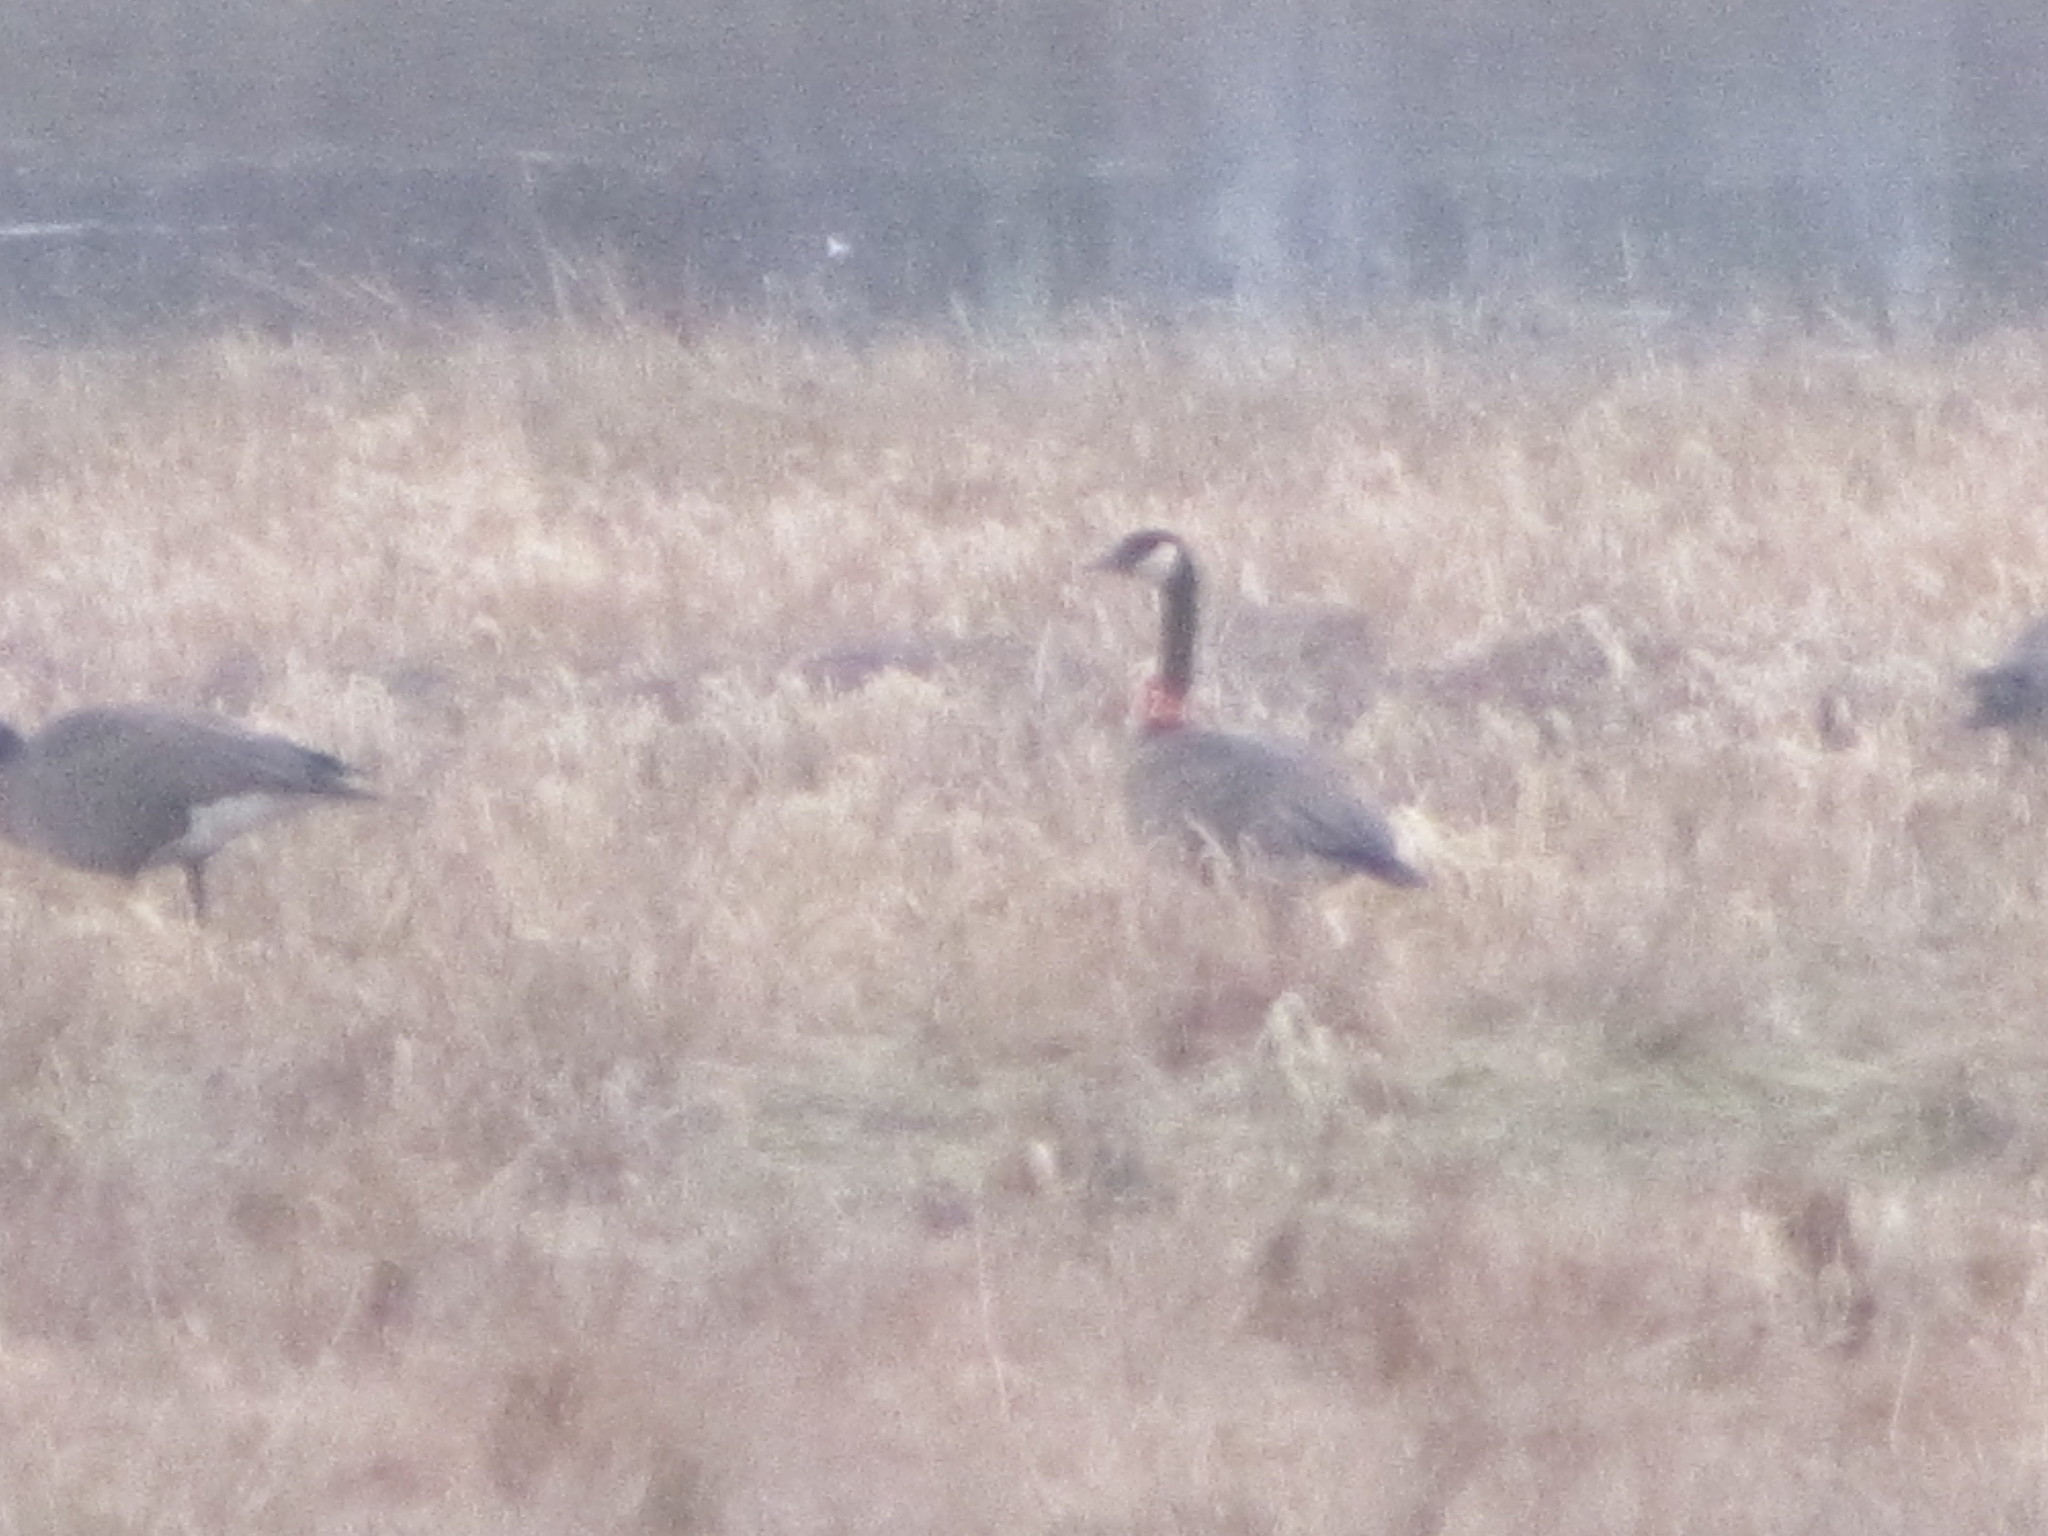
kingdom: Animalia
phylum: Chordata
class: Aves
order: Anseriformes
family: Anatidae
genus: Branta
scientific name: Branta canadensis
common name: Canada goose
